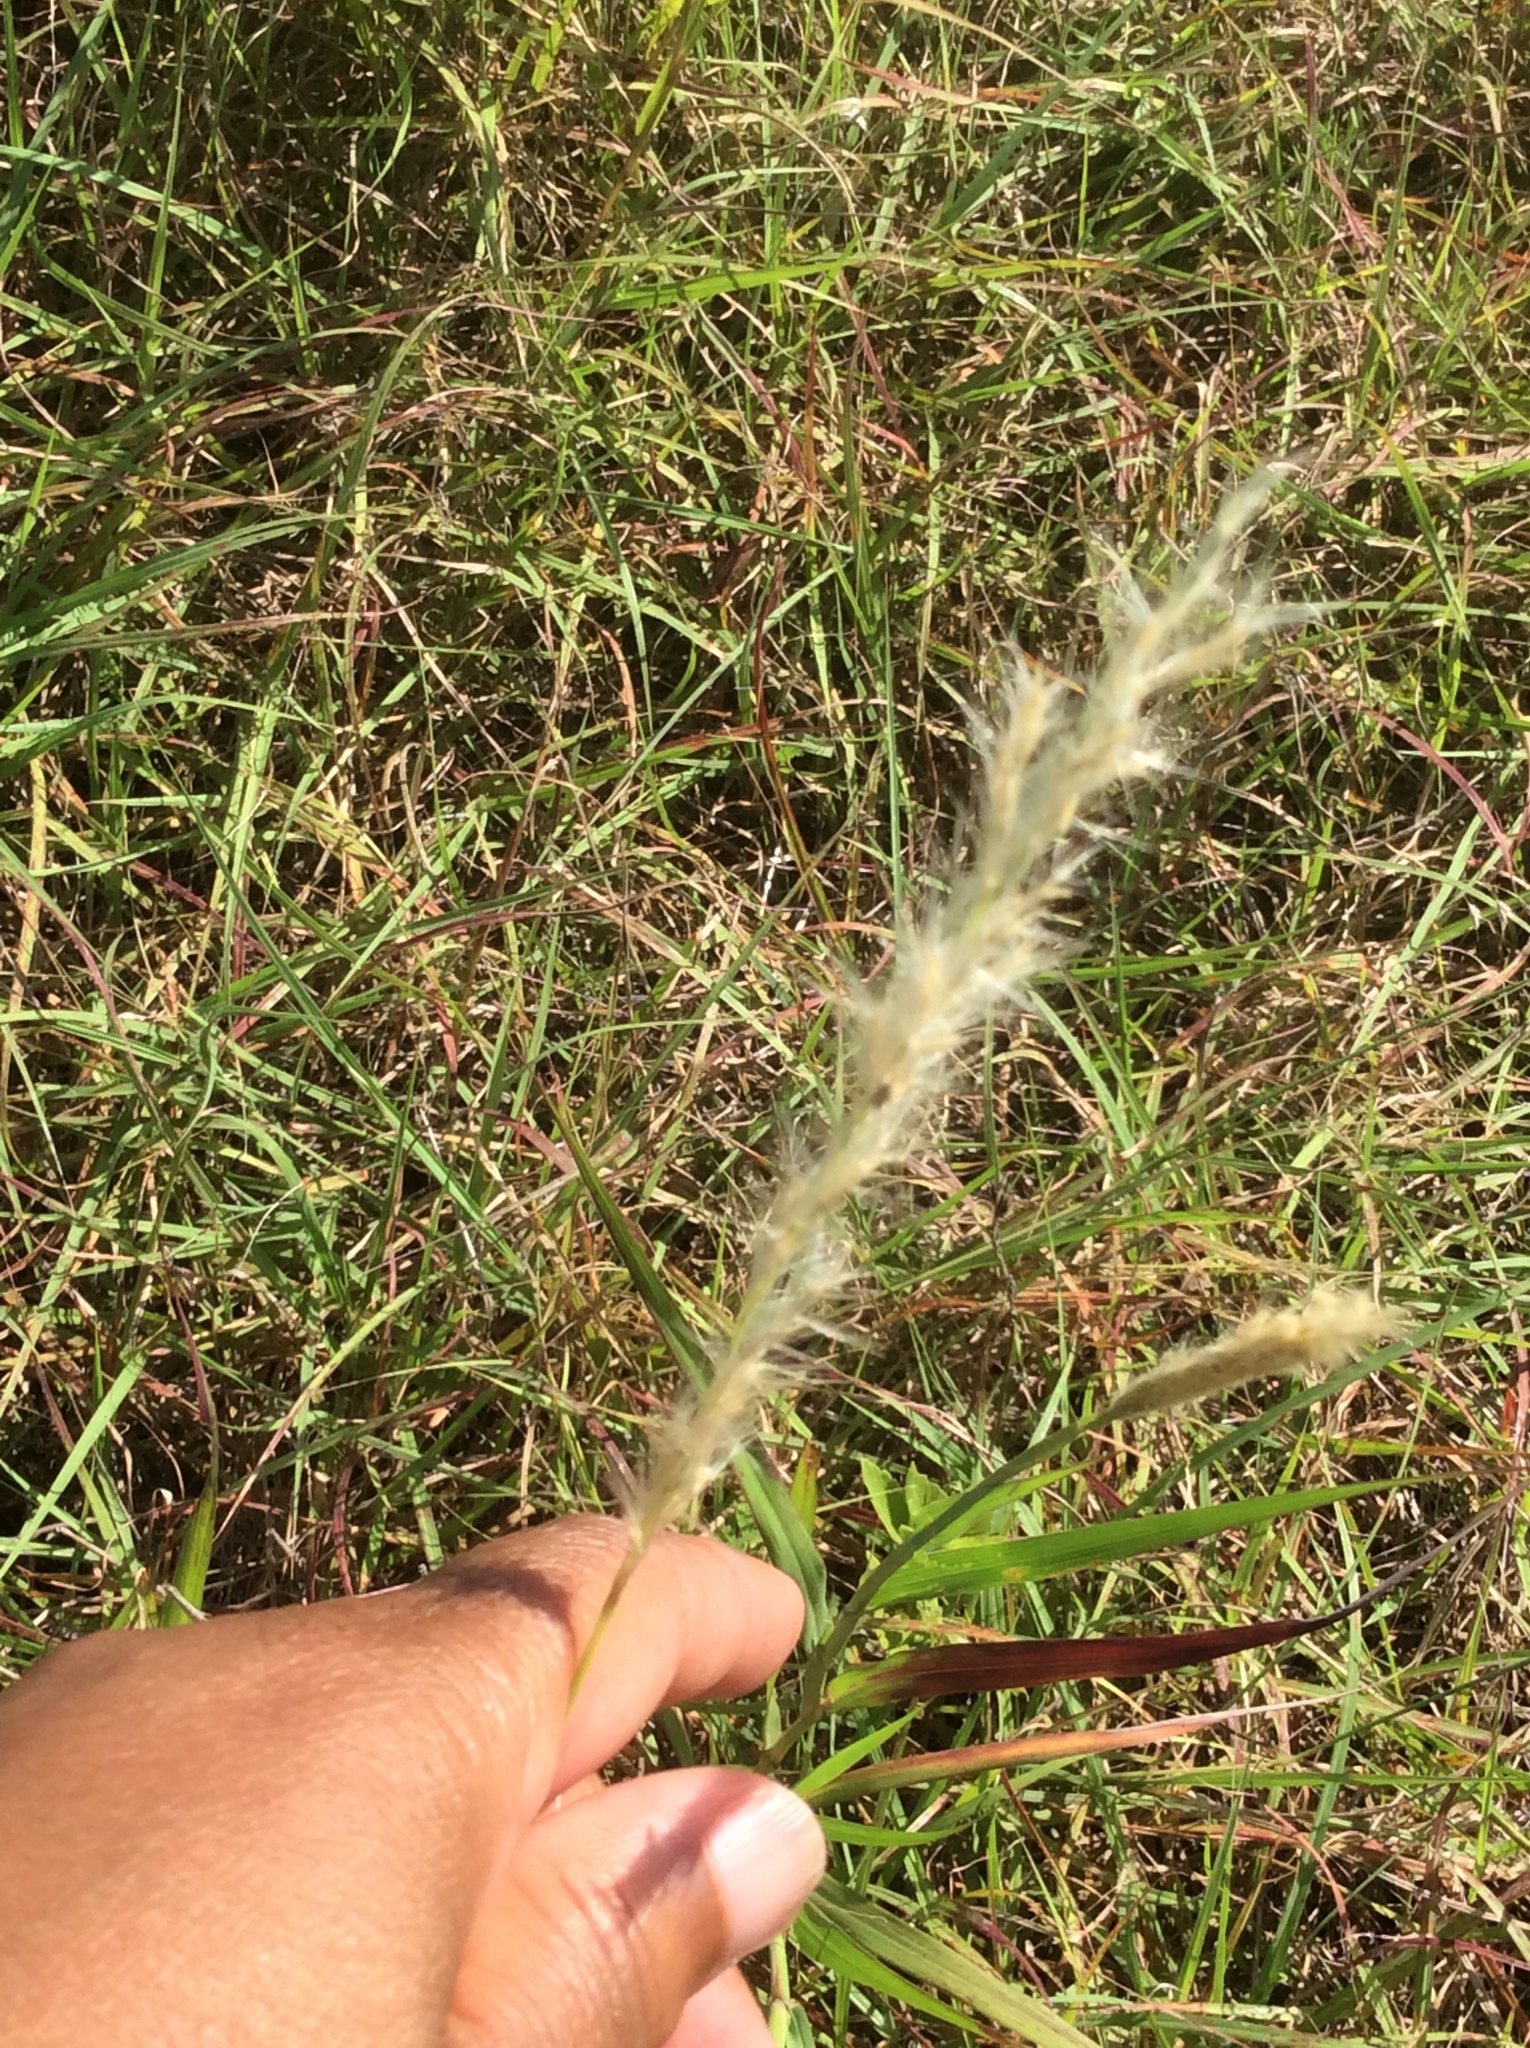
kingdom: Plantae
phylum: Tracheophyta
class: Liliopsida
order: Poales
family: Poaceae
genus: Bothriochloa
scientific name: Bothriochloa torreyana
